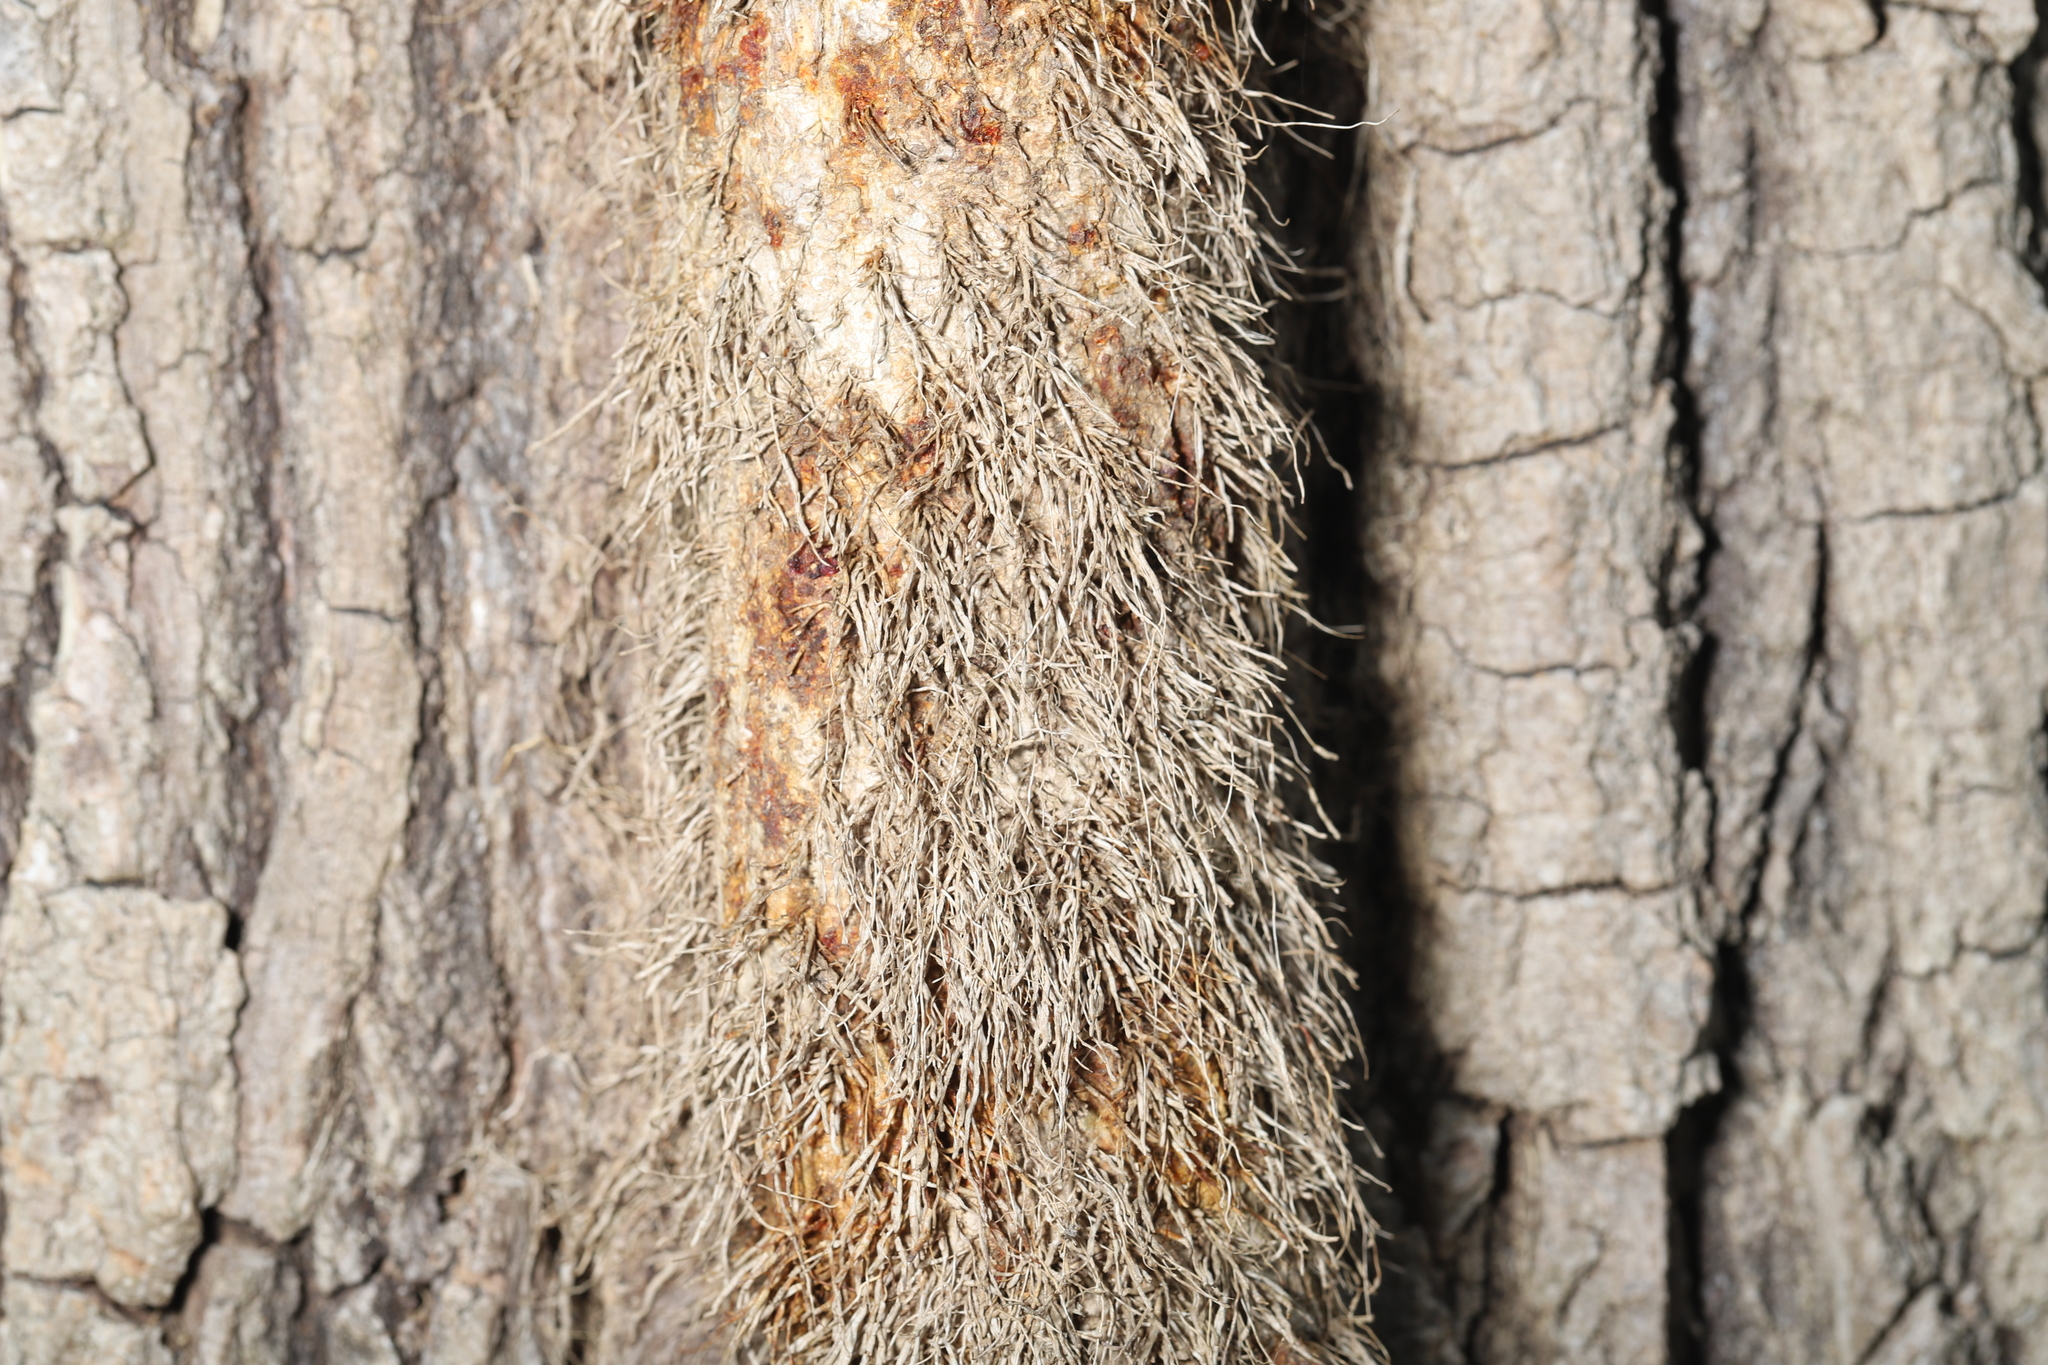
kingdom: Plantae
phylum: Tracheophyta
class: Magnoliopsida
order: Sapindales
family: Anacardiaceae
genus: Toxicodendron
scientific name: Toxicodendron radicans
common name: Poison ivy
